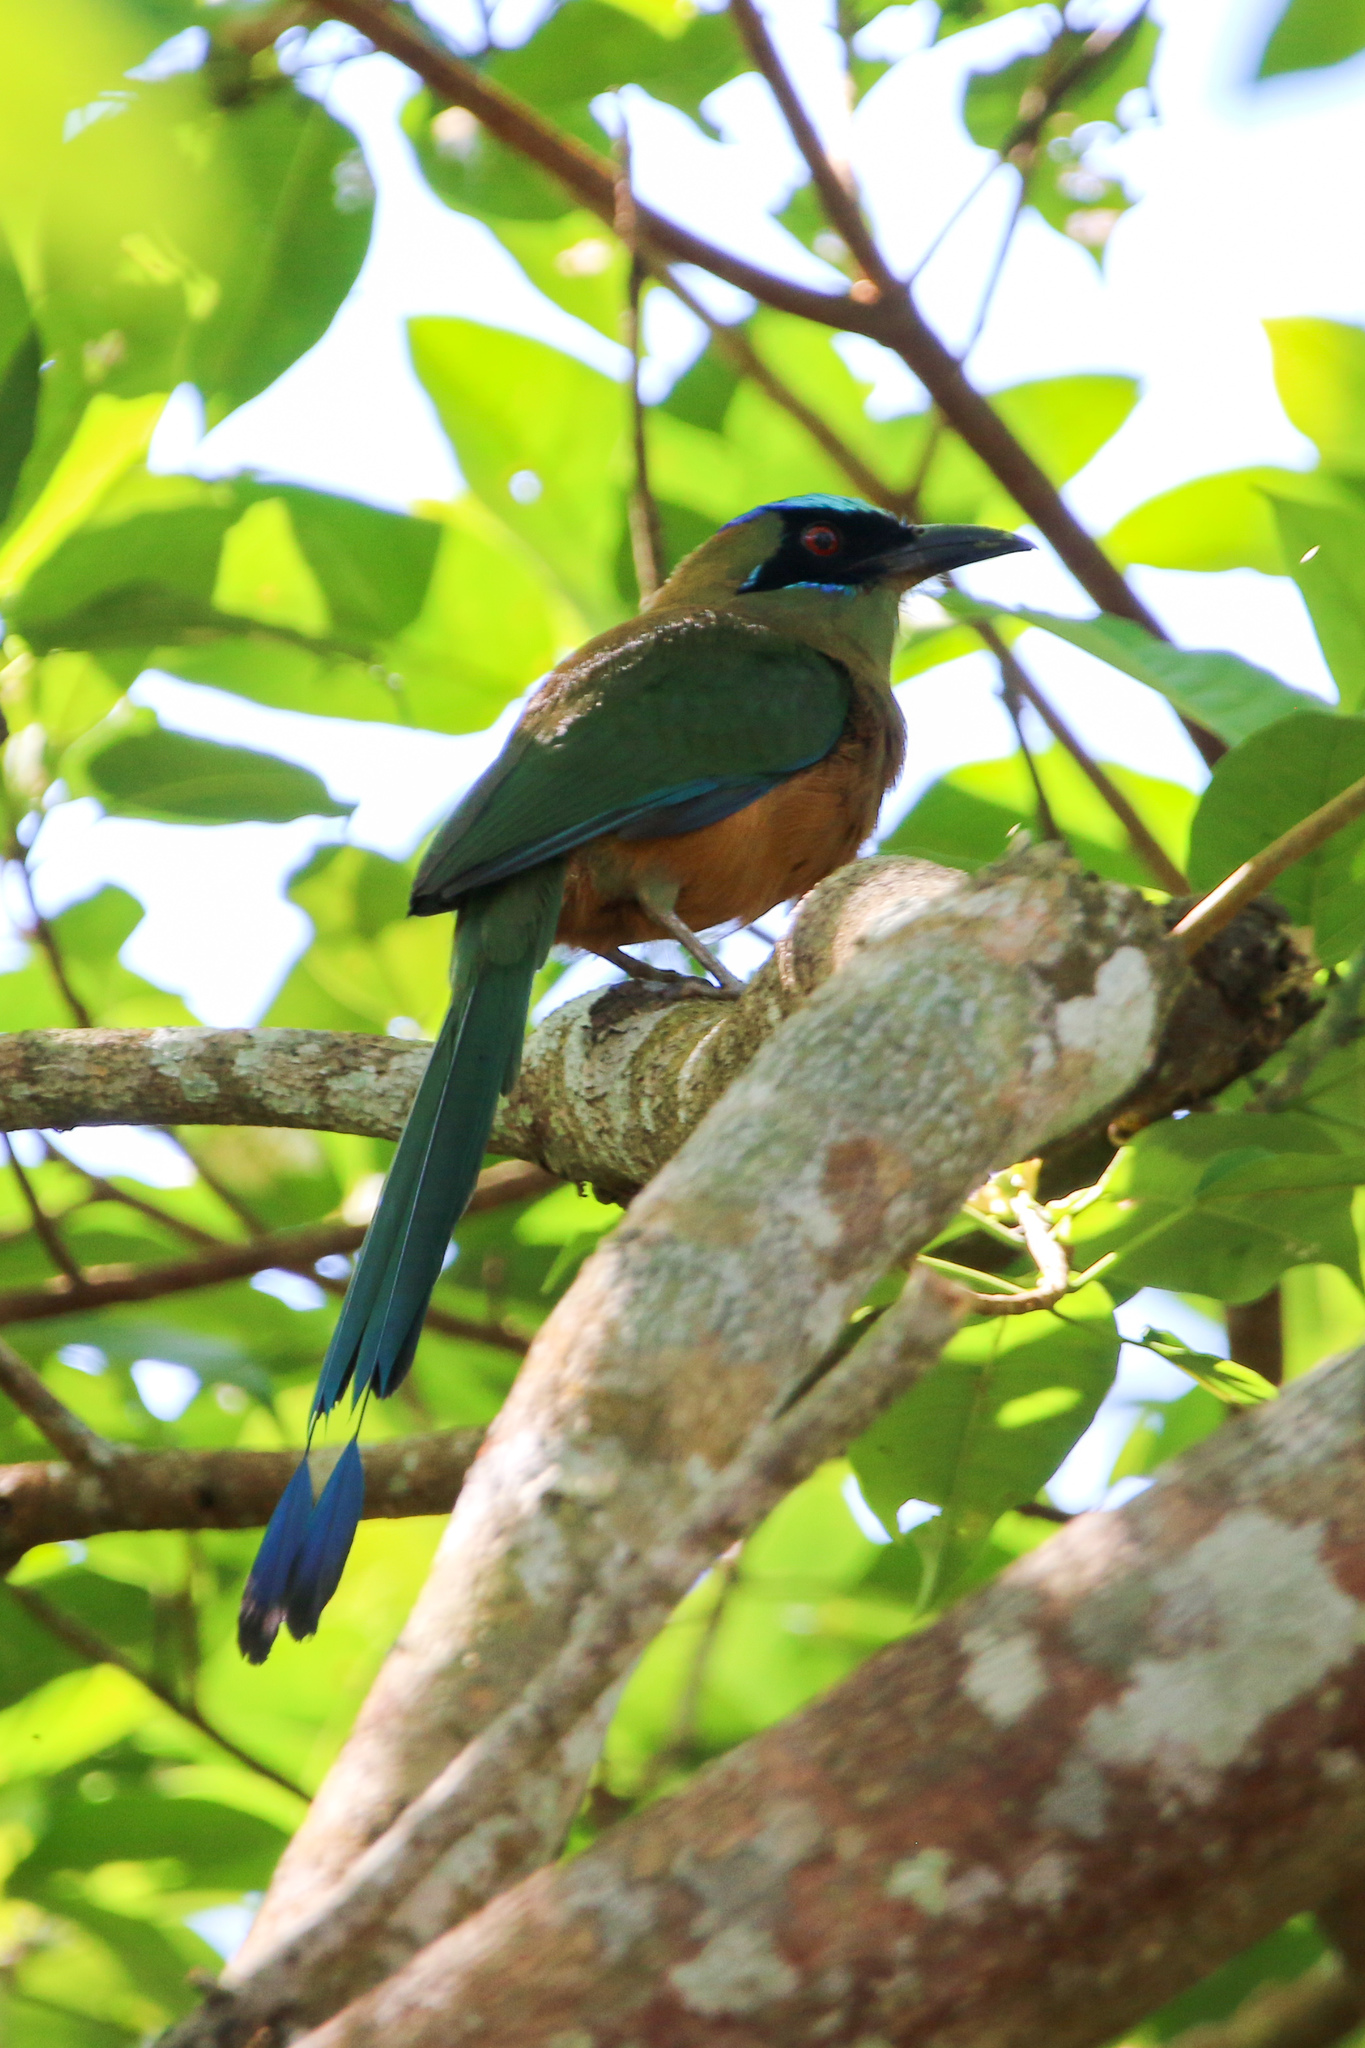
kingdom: Animalia
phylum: Chordata
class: Aves
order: Coraciiformes
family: Momotidae
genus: Momotus
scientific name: Momotus subrufescens
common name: Whooping motmot
